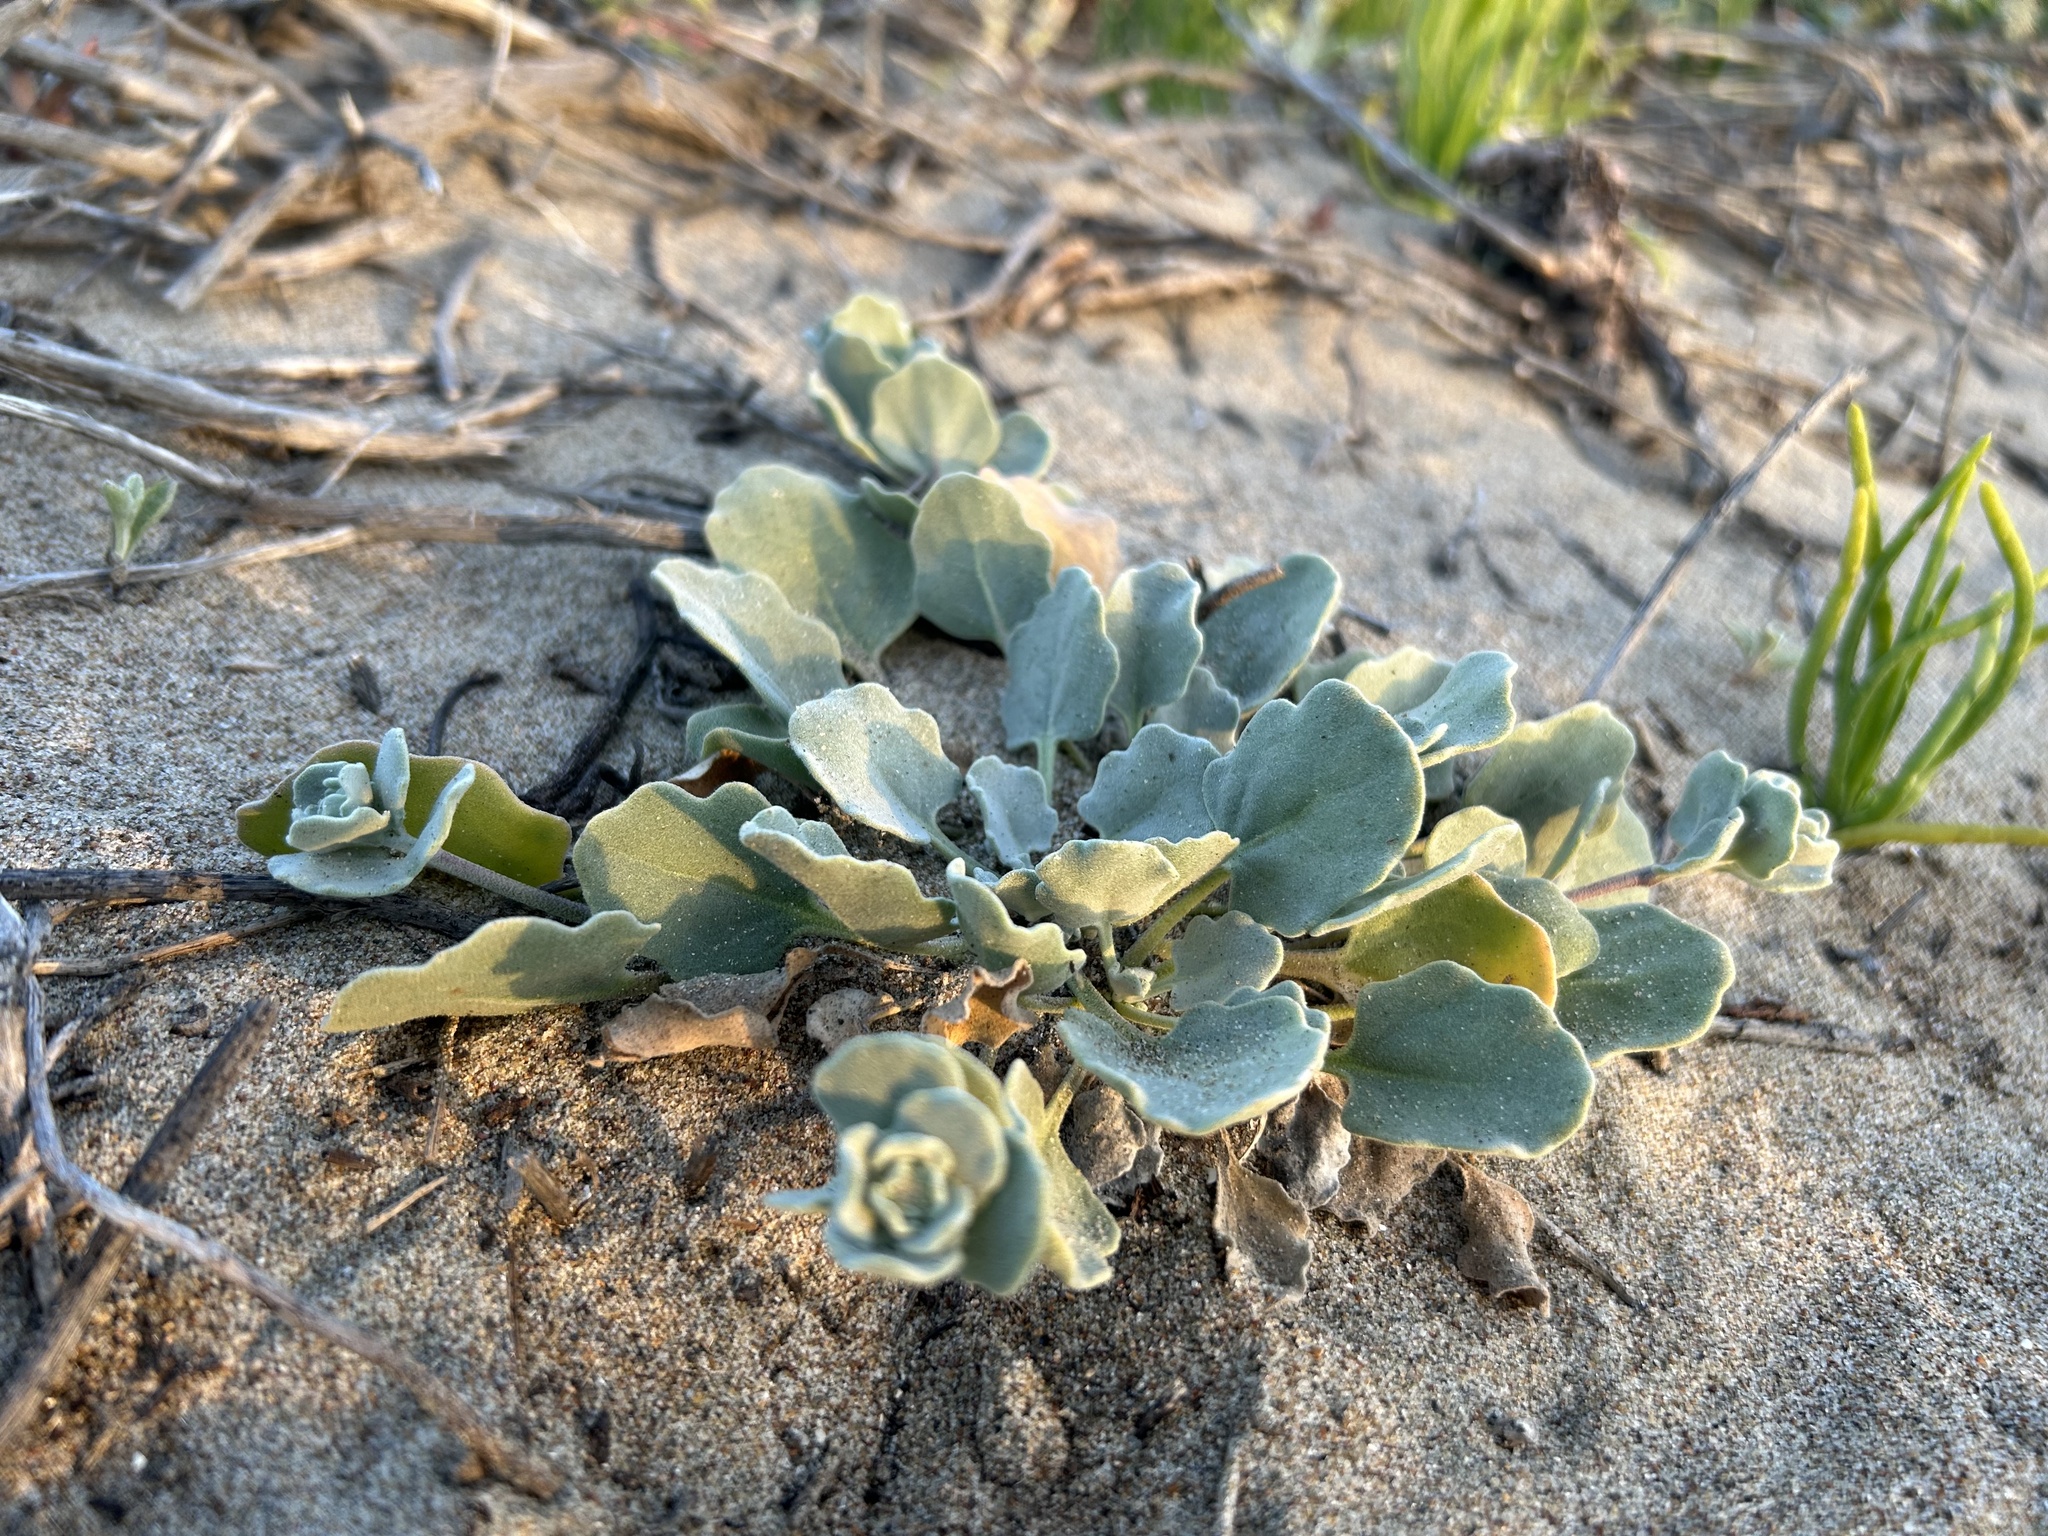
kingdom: Plantae
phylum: Tracheophyta
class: Magnoliopsida
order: Brassicales
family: Brassicaceae
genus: Dithyrea
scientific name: Dithyrea maritima
